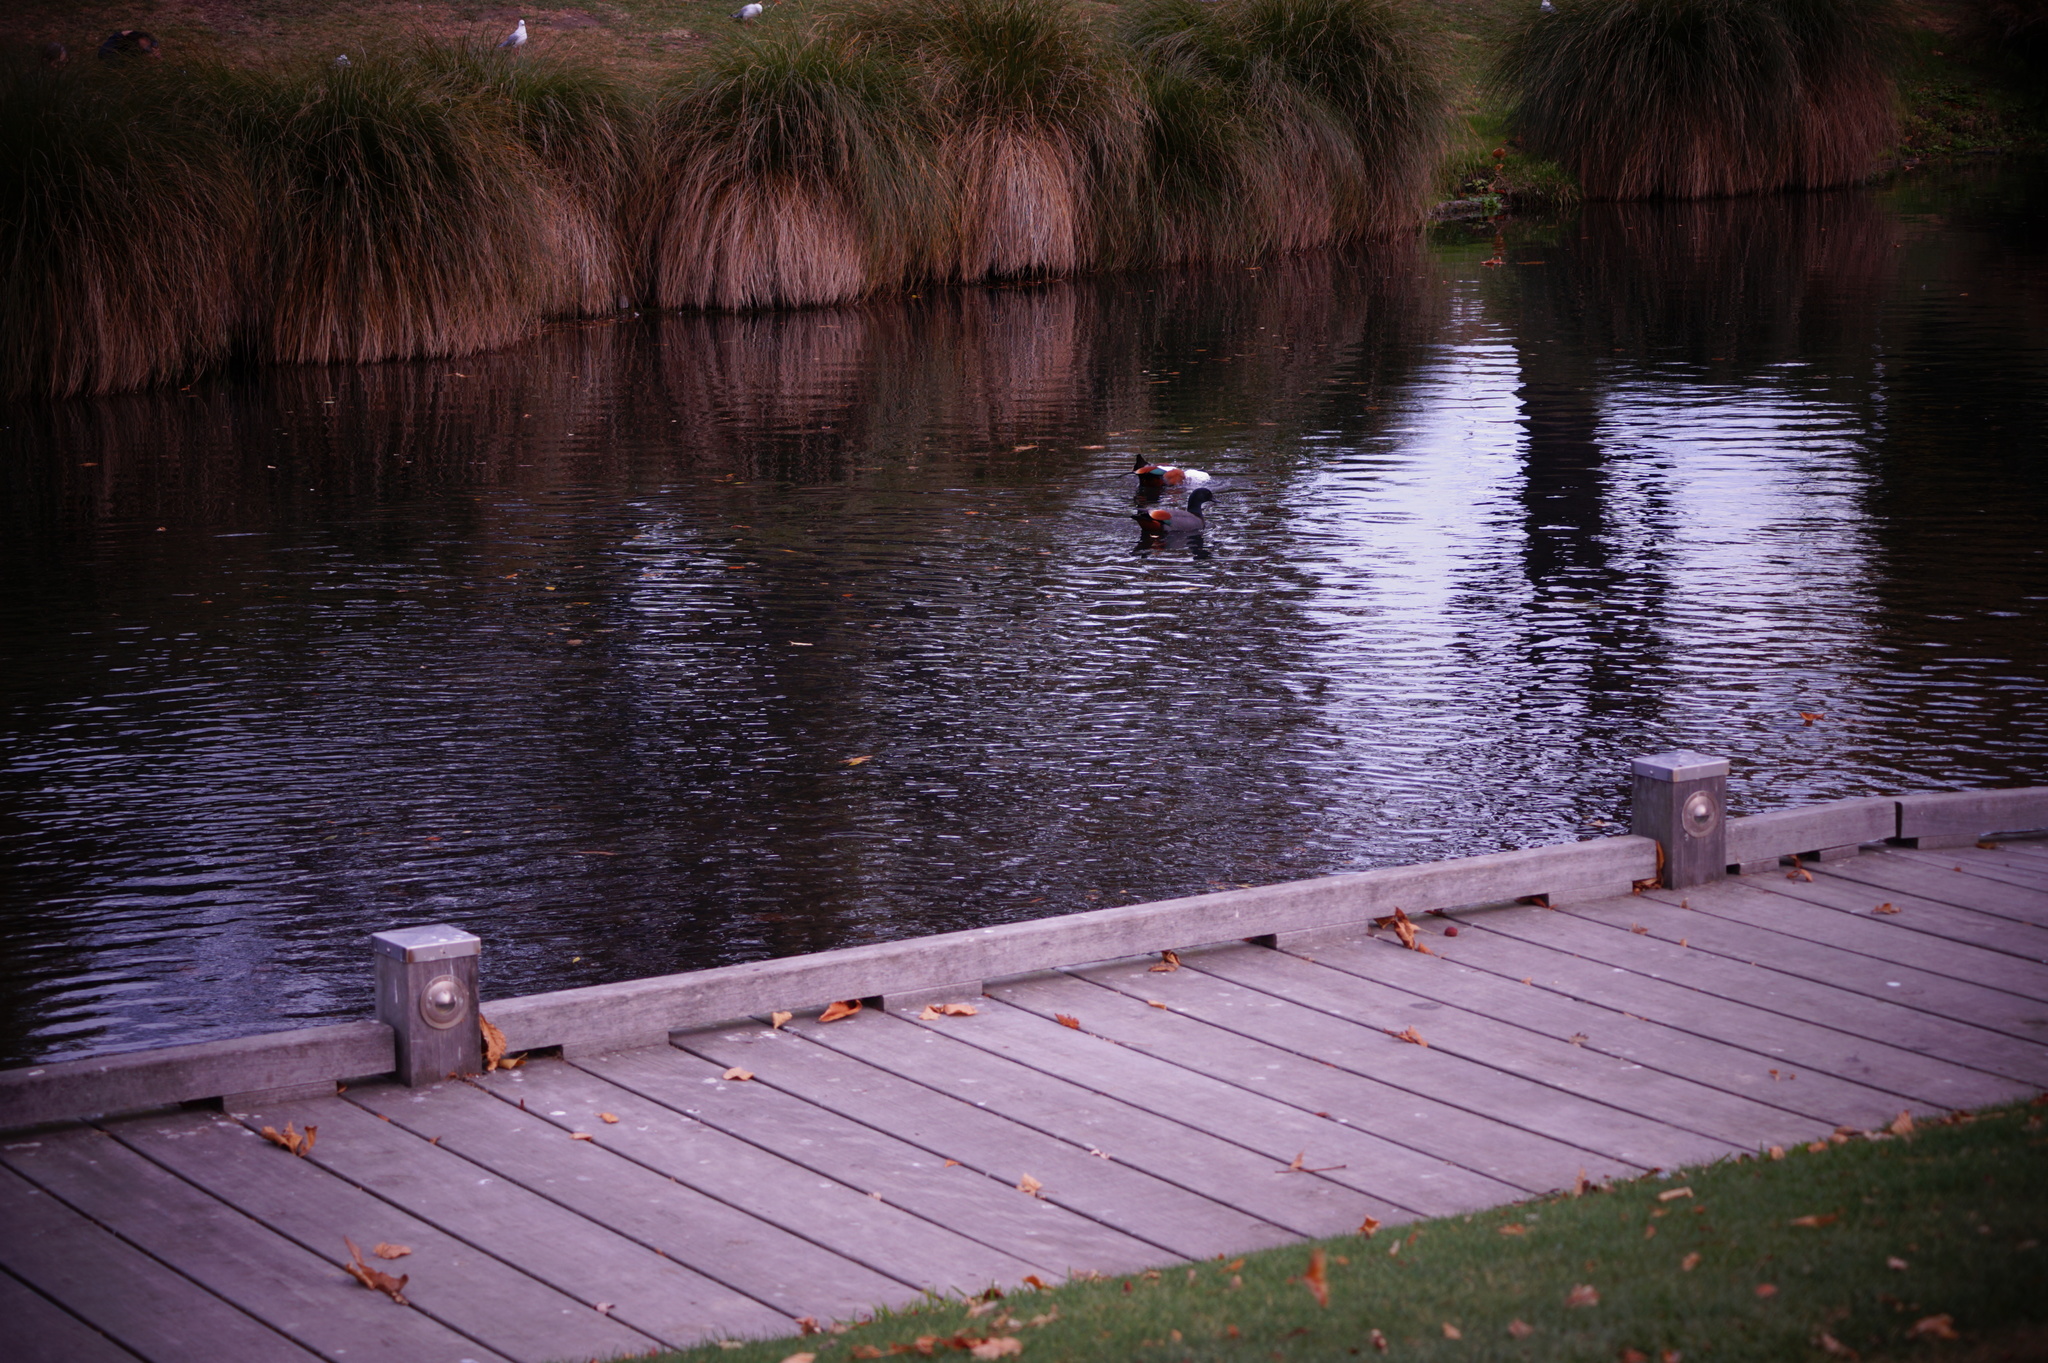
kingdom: Animalia
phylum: Chordata
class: Aves
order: Anseriformes
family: Anatidae
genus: Tadorna
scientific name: Tadorna variegata
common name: Paradise shelduck
